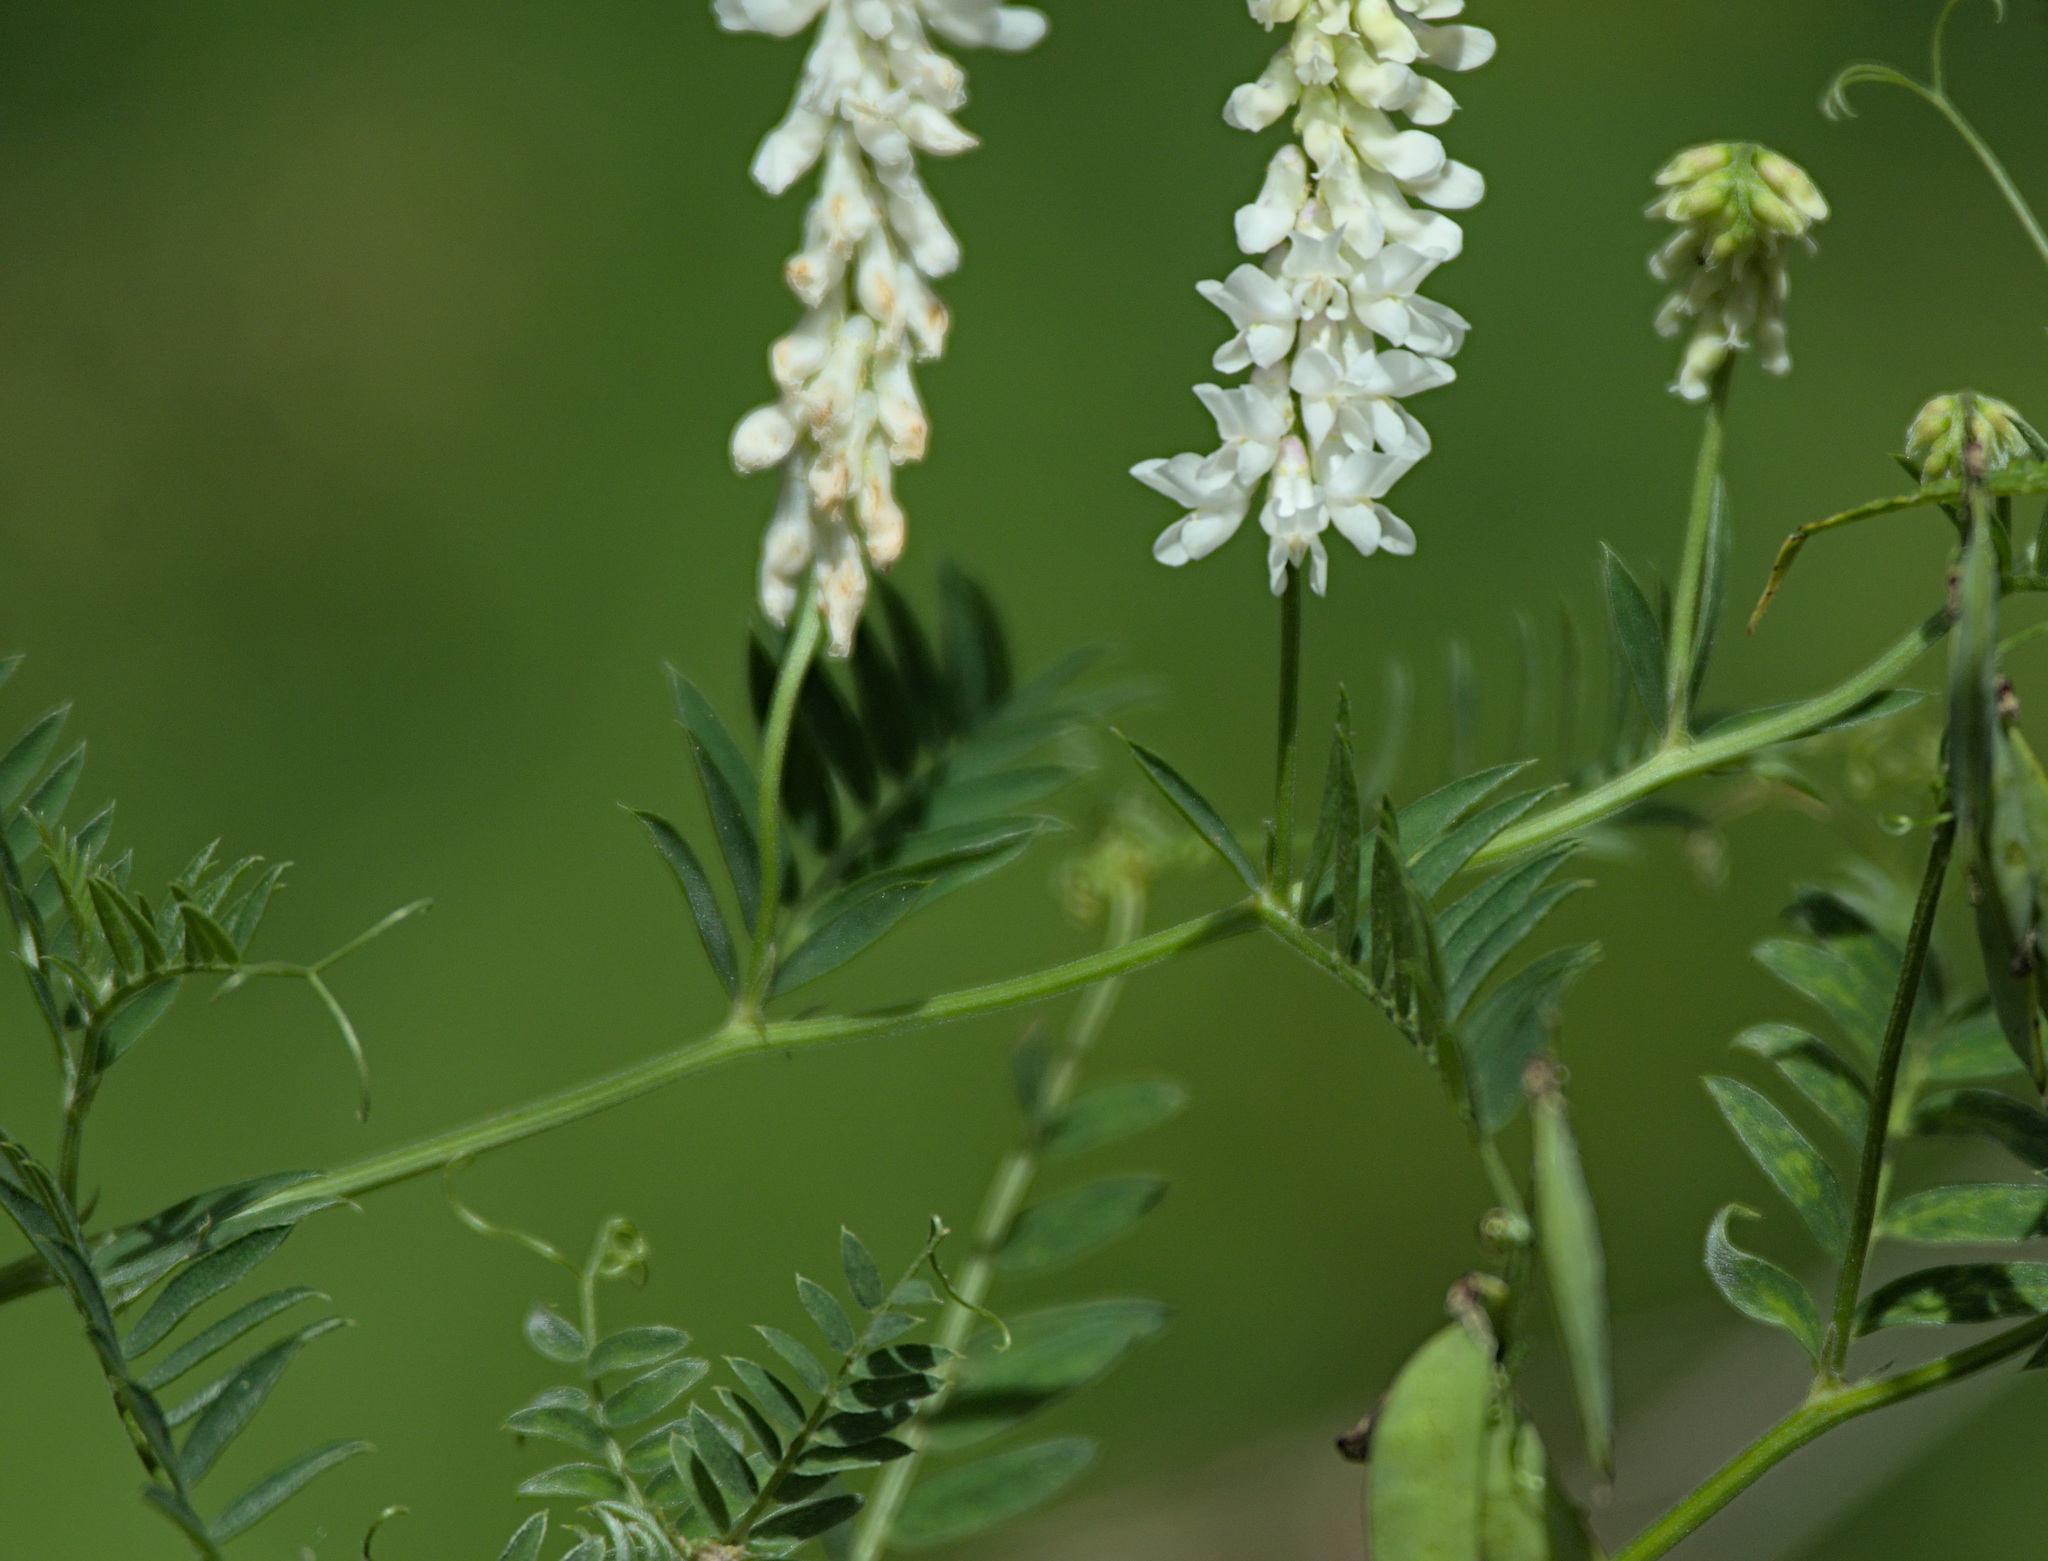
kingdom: Plantae
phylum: Tracheophyta
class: Magnoliopsida
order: Fabales
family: Fabaceae
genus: Vicia
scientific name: Vicia cracca
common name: Bird vetch
